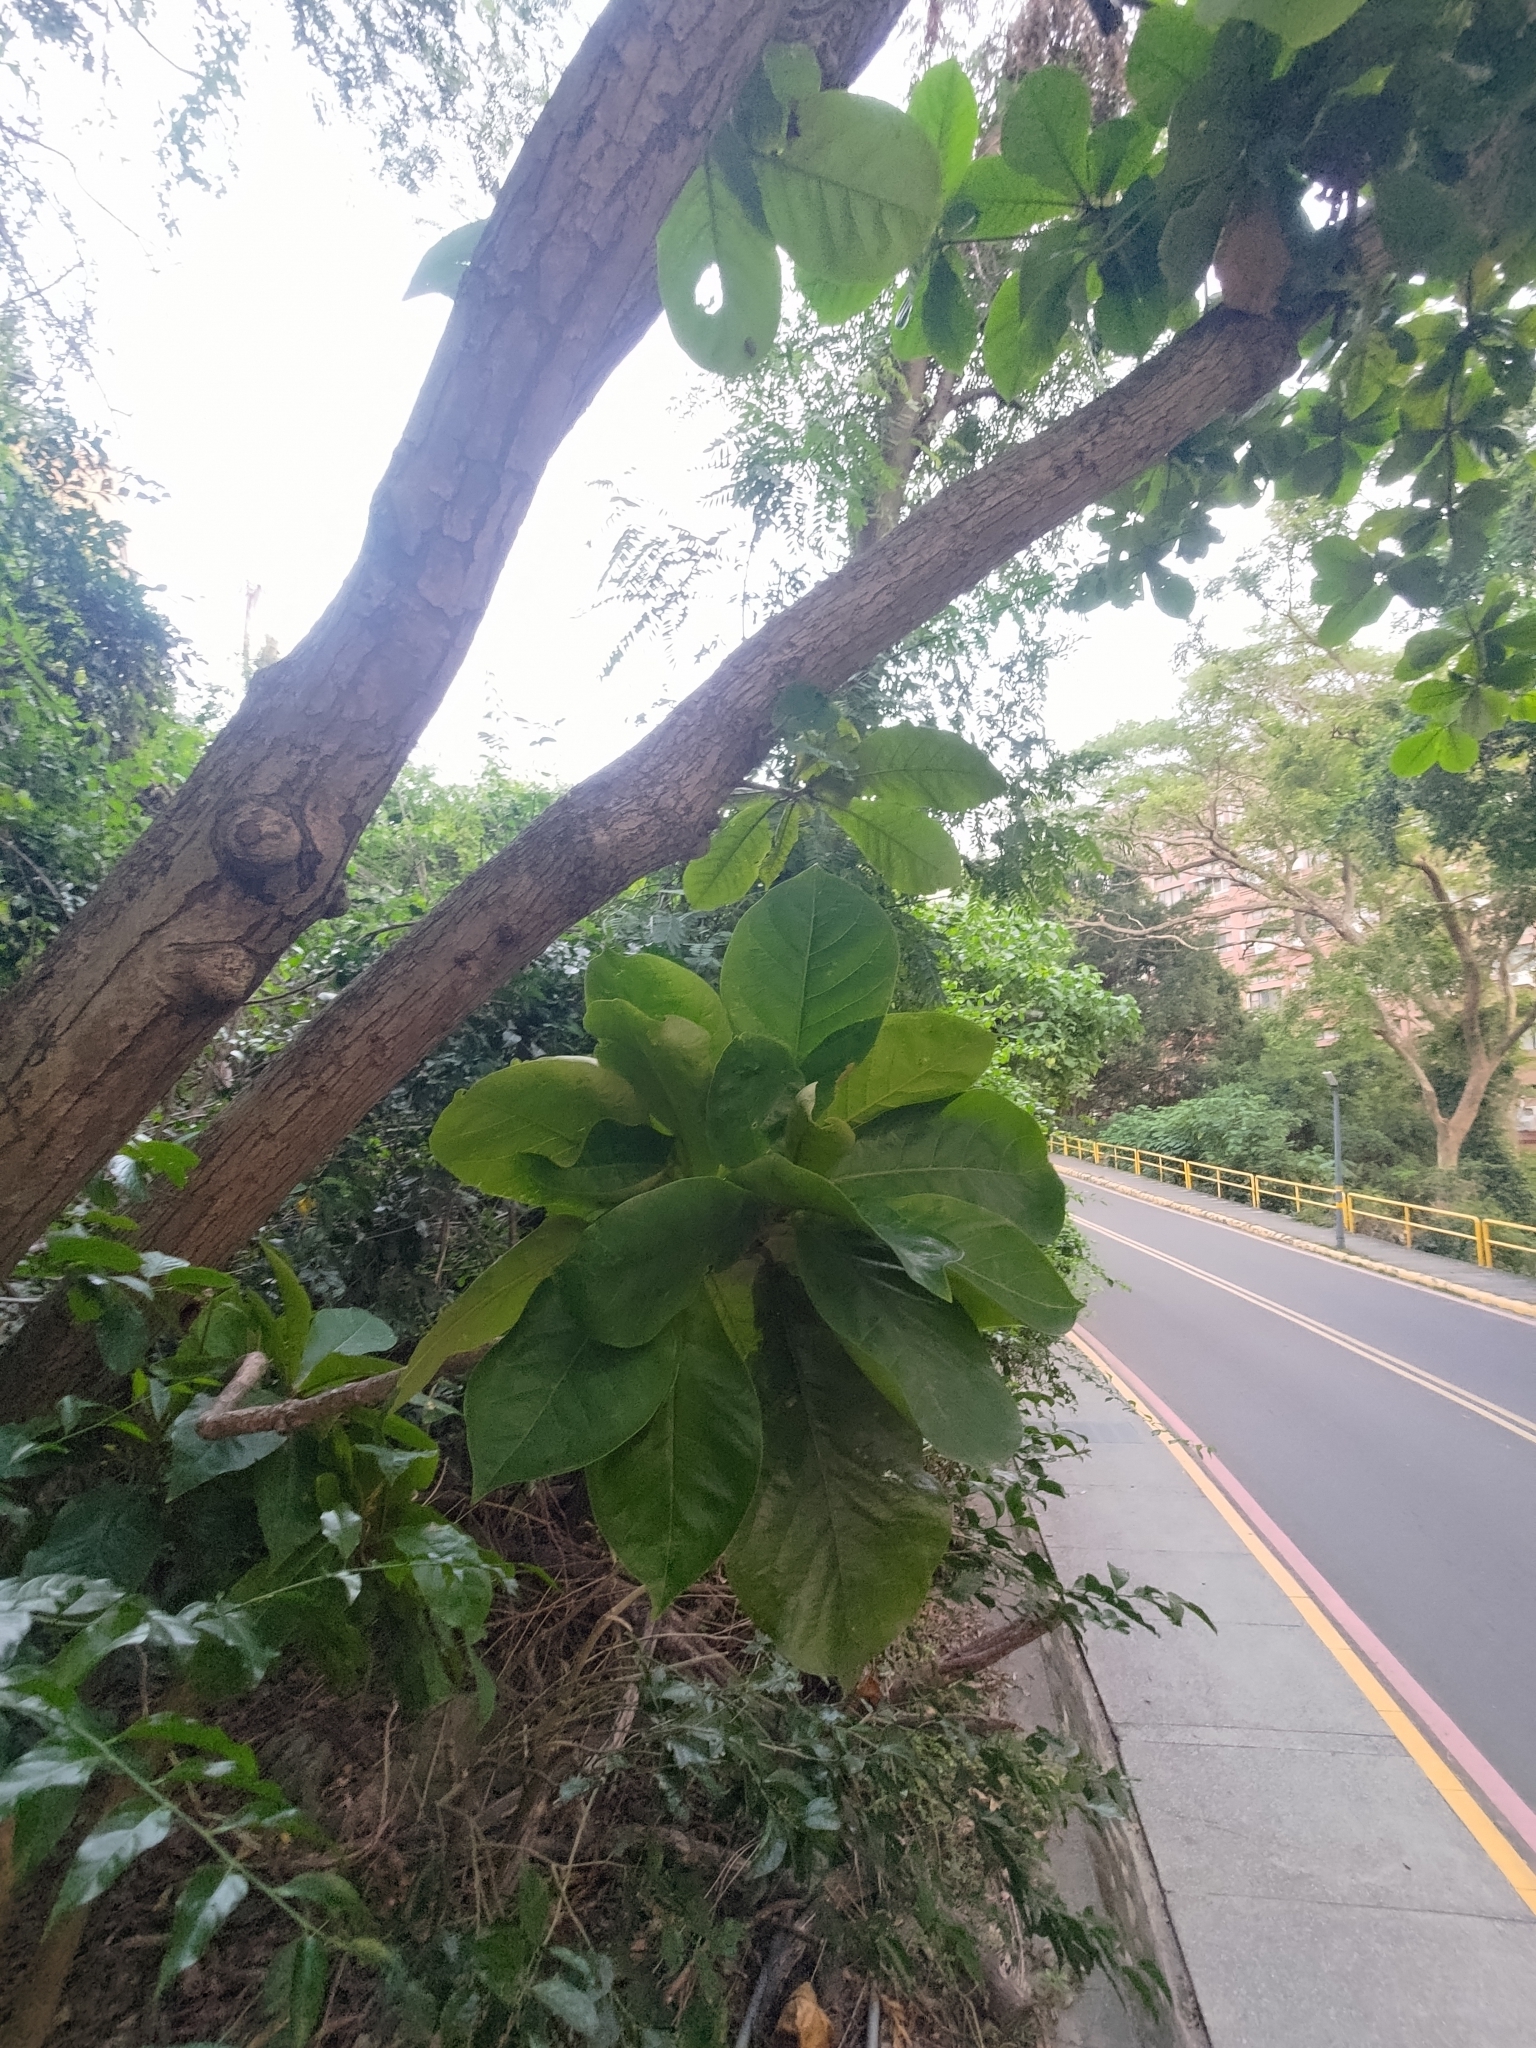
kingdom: Plantae
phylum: Tracheophyta
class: Magnoliopsida
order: Myrtales
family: Combretaceae
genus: Terminalia
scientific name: Terminalia catappa
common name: Tropical almond
